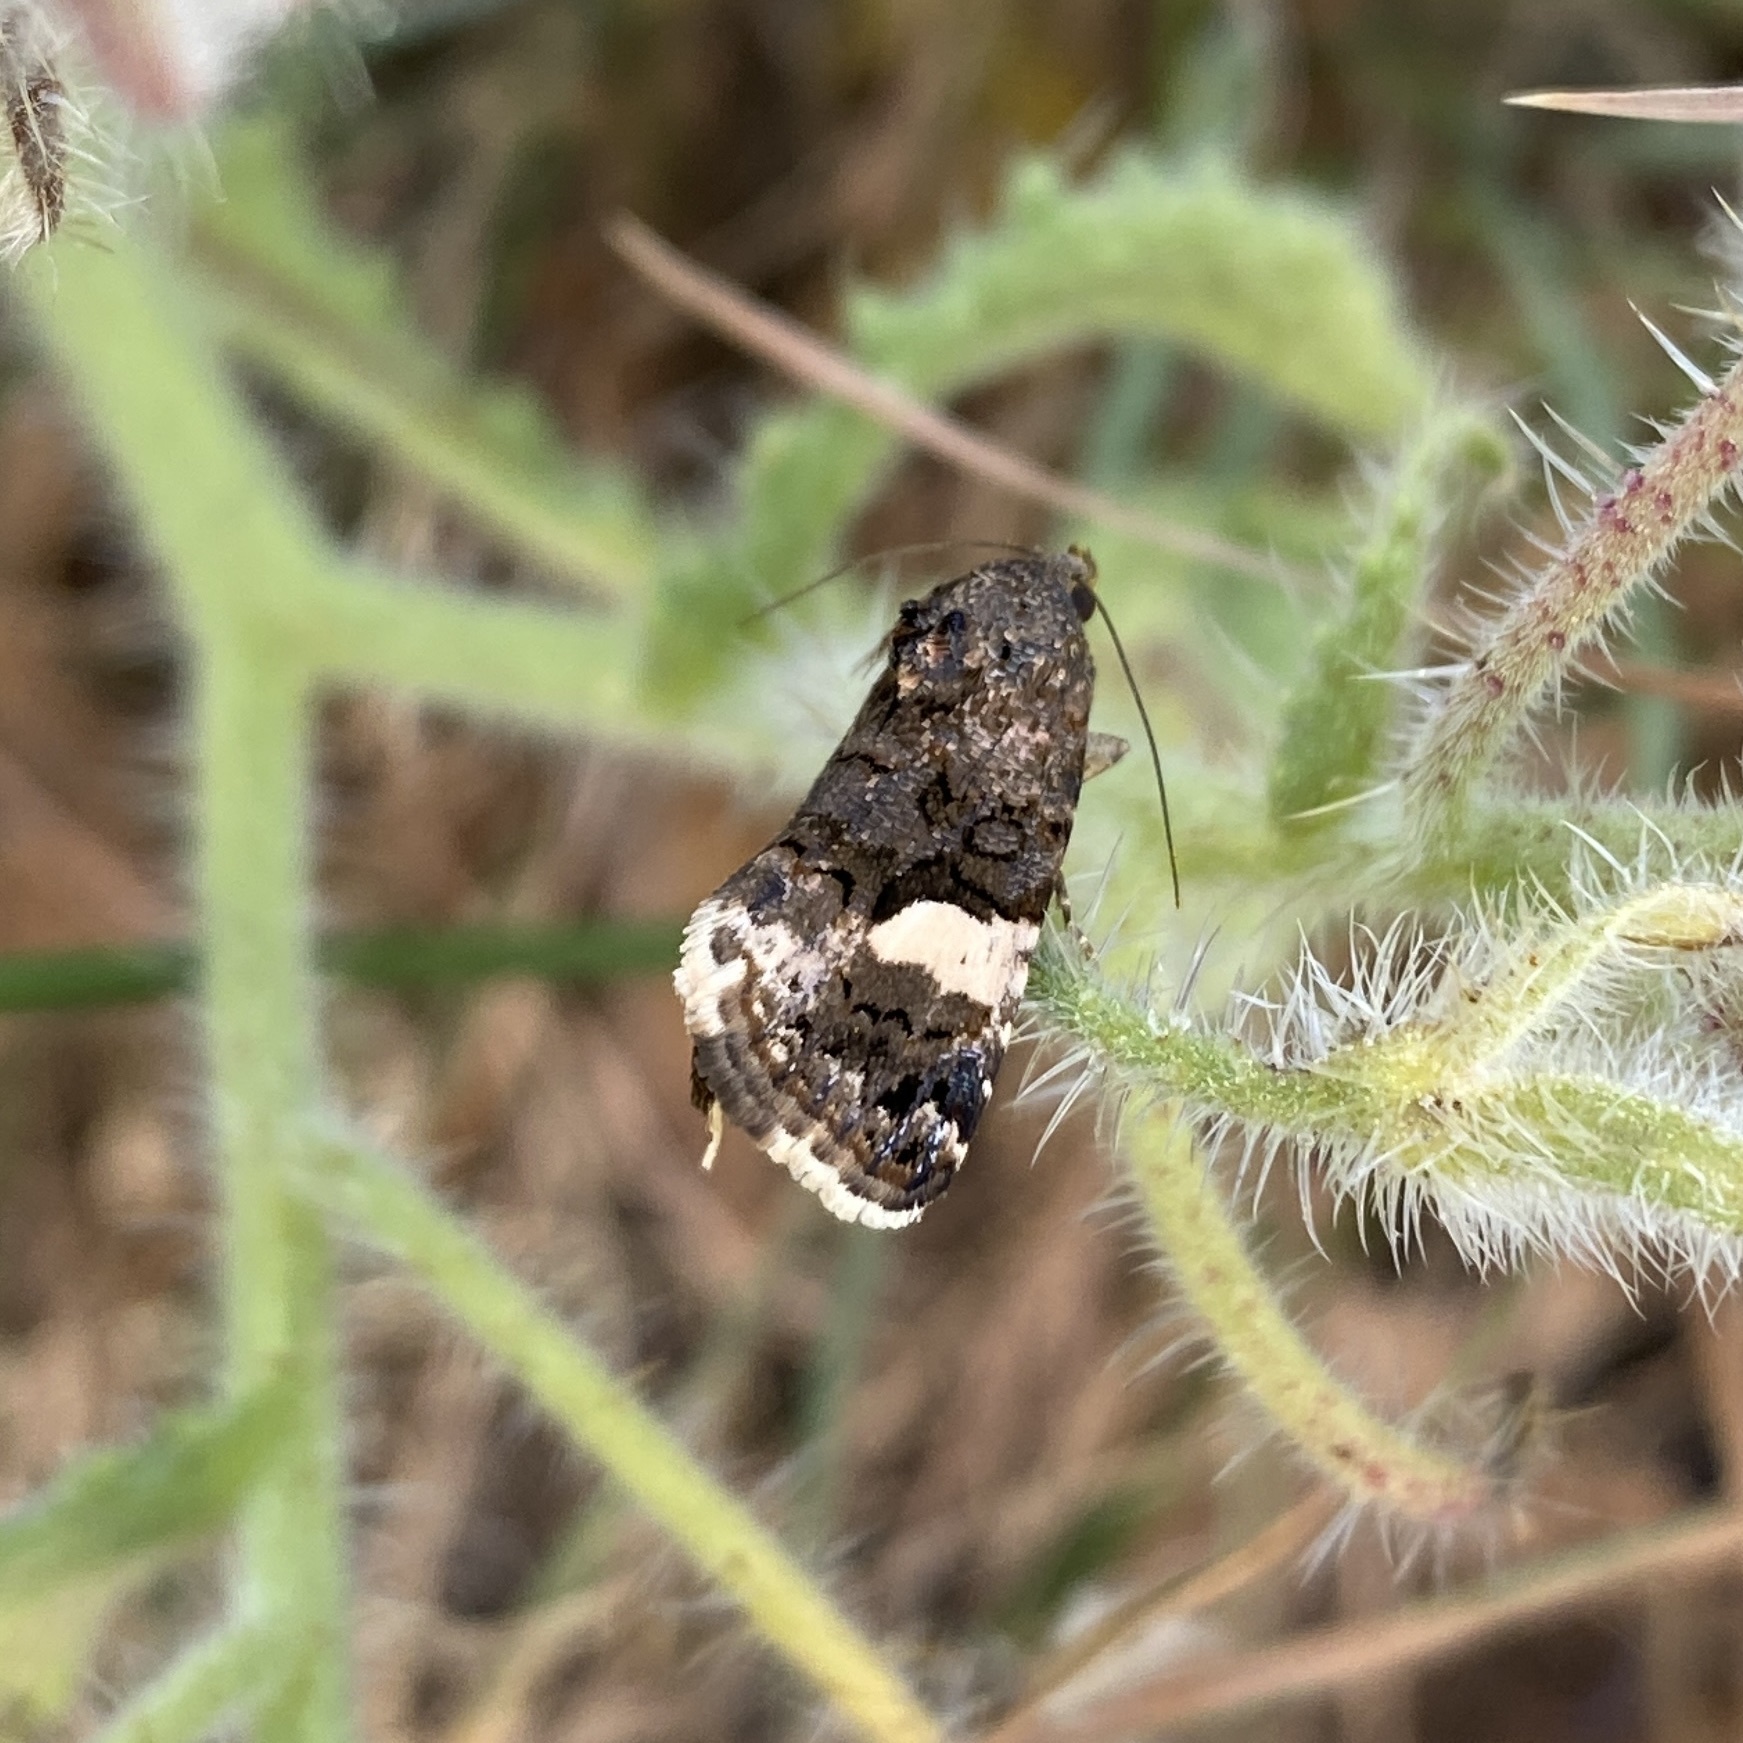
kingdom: Animalia
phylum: Arthropoda
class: Insecta
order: Lepidoptera
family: Erebidae
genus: Tyta
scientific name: Tyta luctuosa
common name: Four-spotted
